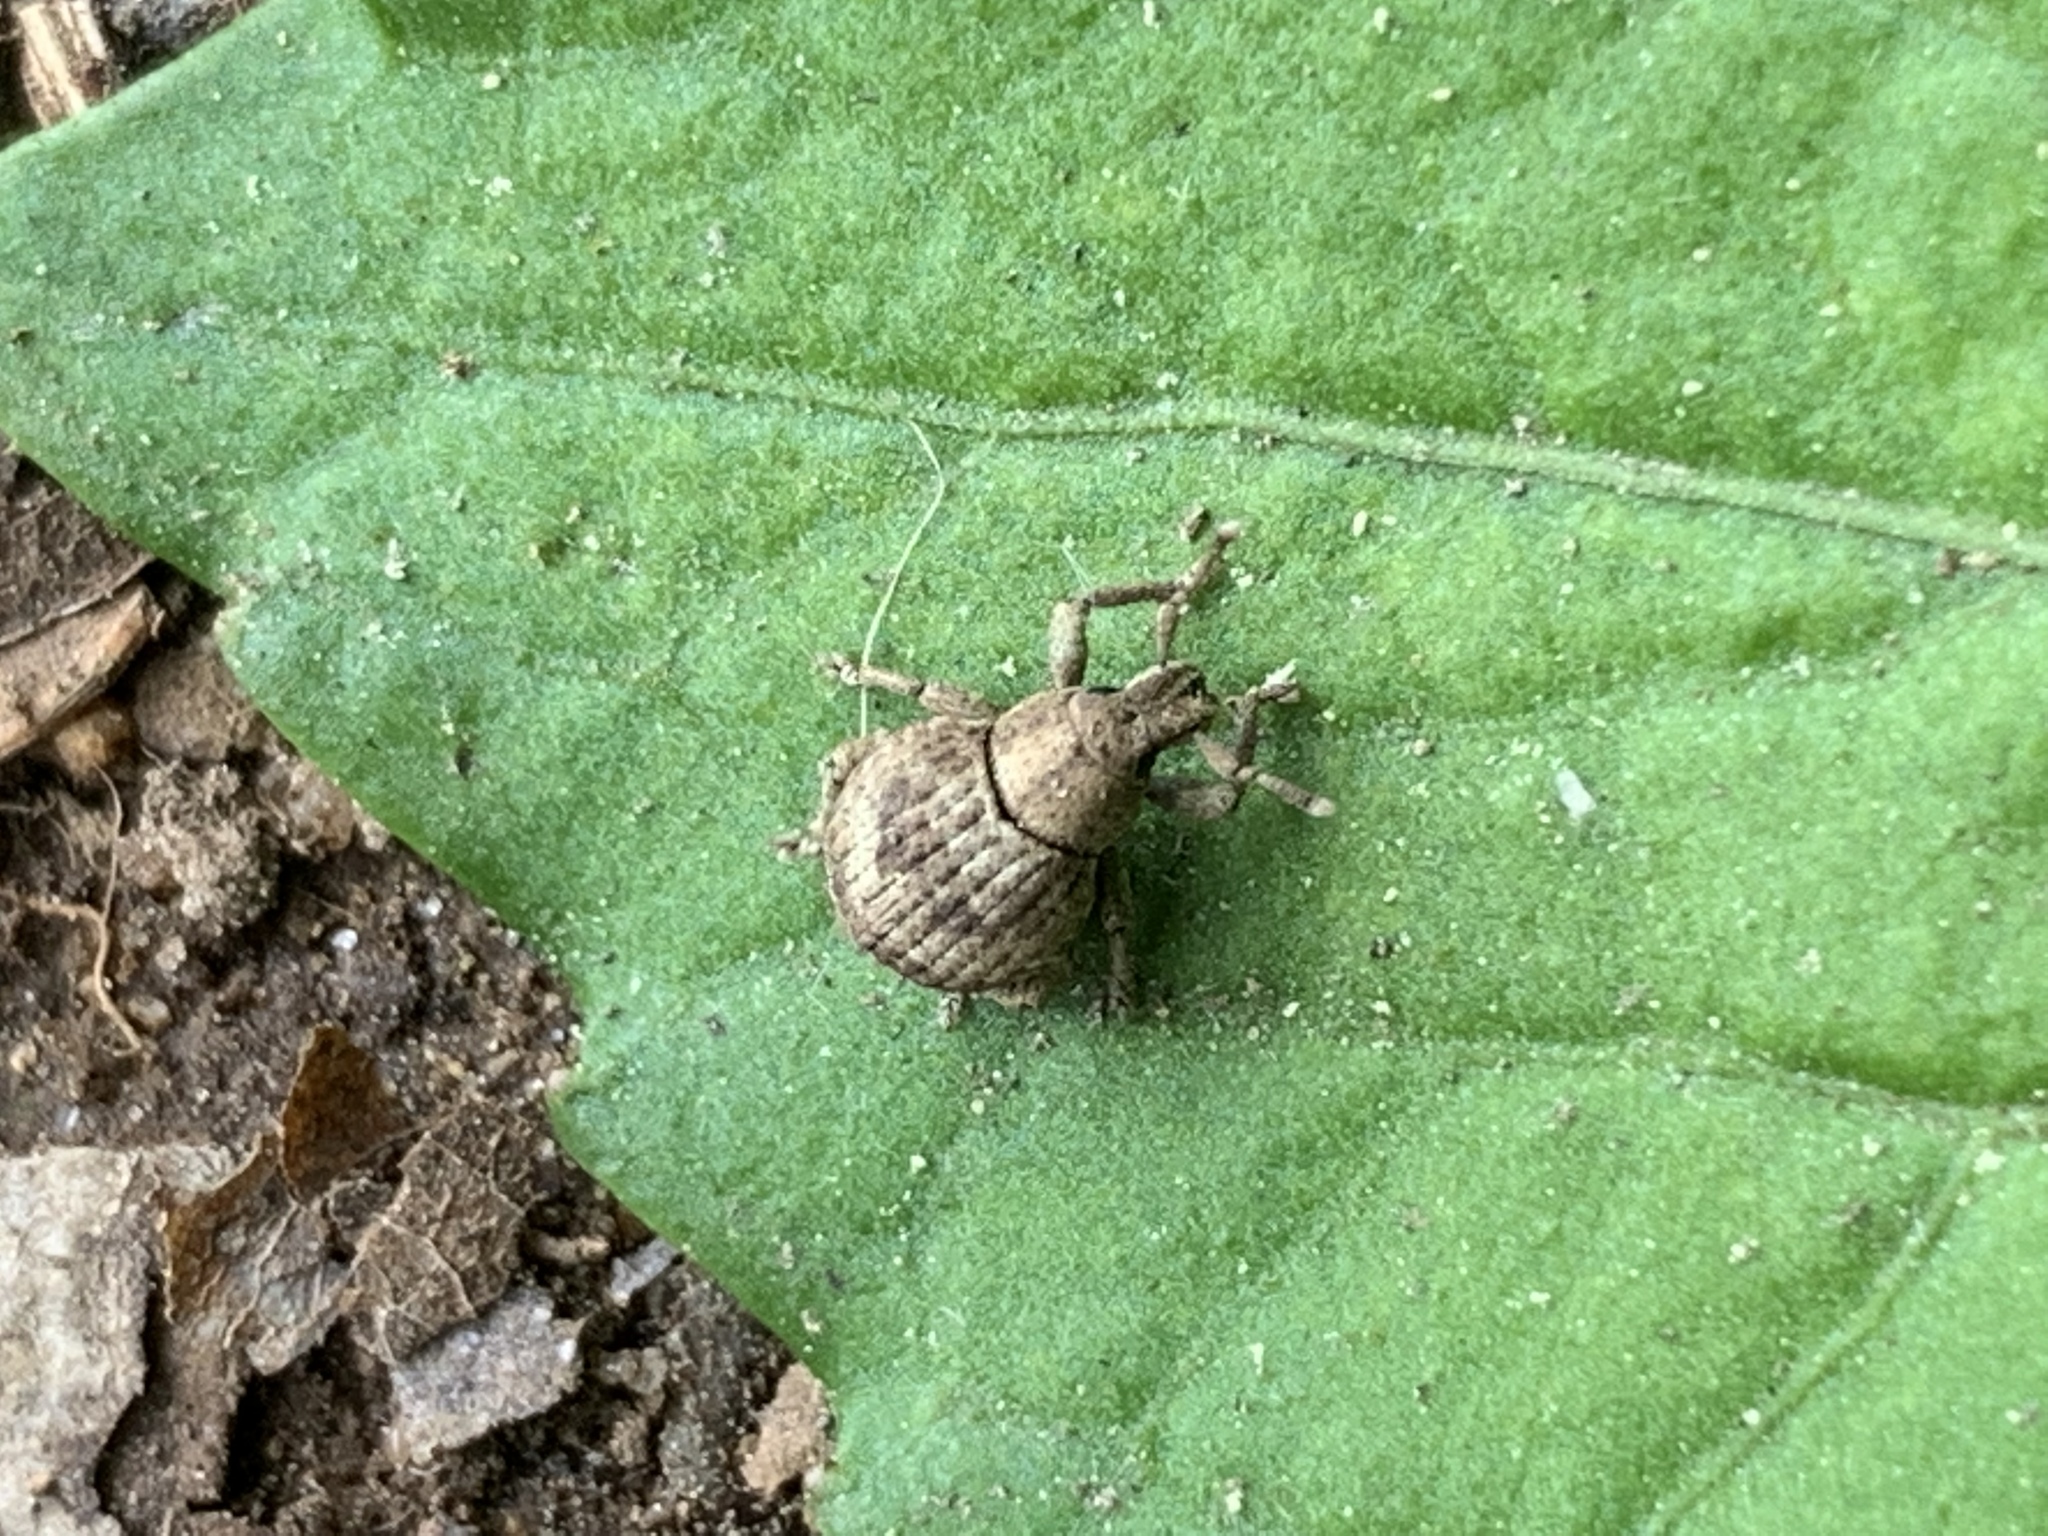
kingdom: Animalia
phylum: Arthropoda
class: Insecta
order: Coleoptera
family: Curculionidae
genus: Pseudocneorhinus
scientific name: Pseudocneorhinus bifasciatus
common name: Two-banded japanese weevil
